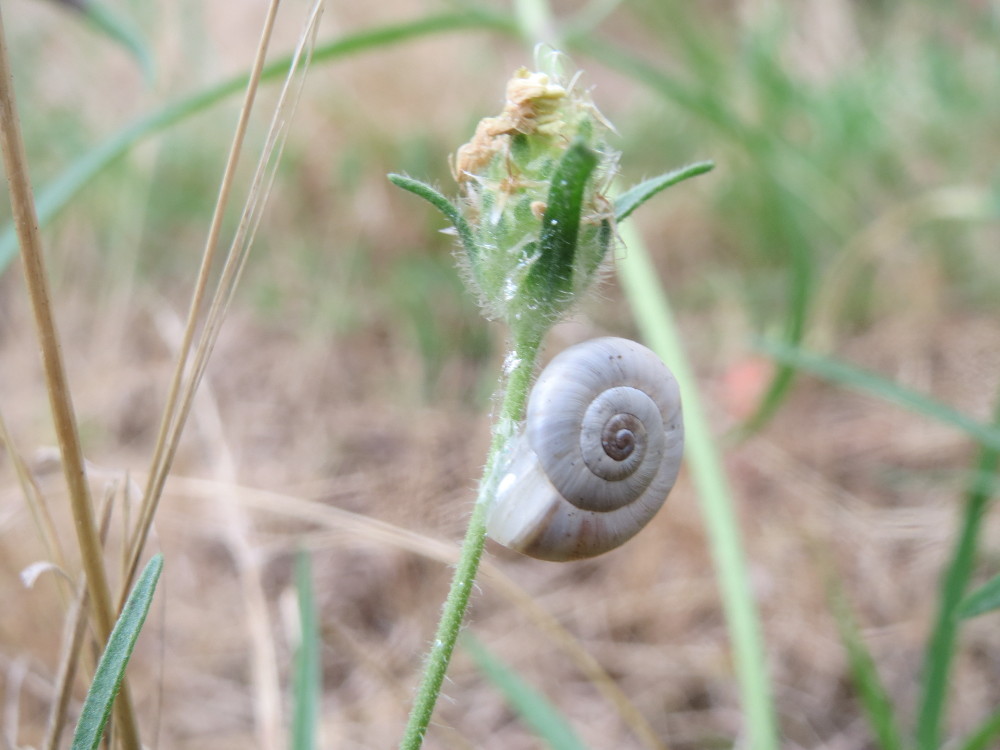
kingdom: Plantae
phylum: Tracheophyta
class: Magnoliopsida
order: Lamiales
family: Plantaginaceae
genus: Plantago
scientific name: Plantago arenaria
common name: Branched plantain
